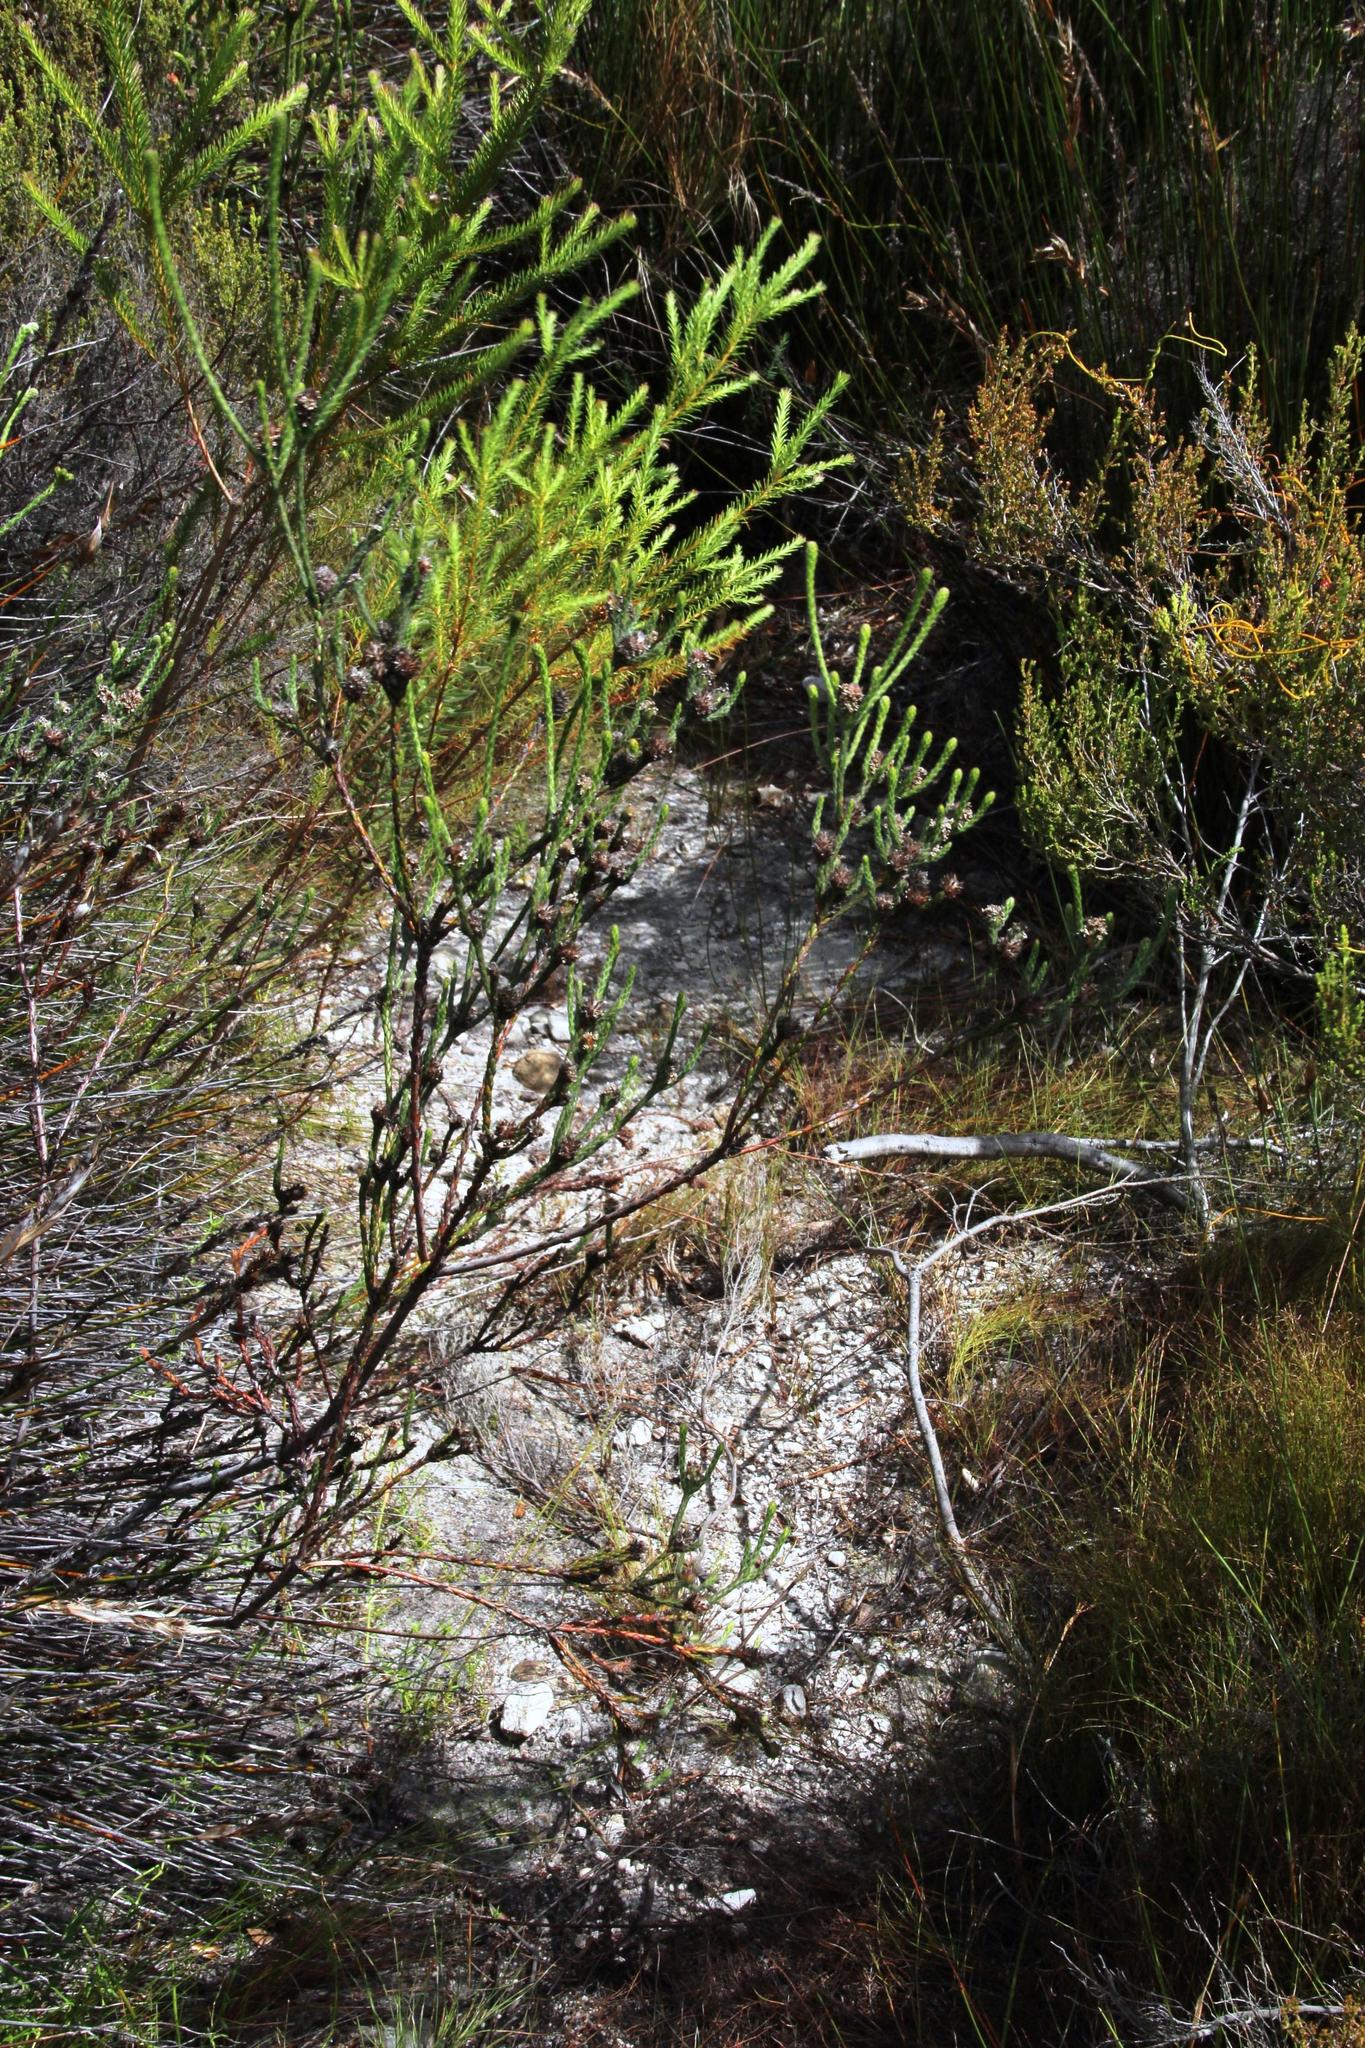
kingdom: Plantae
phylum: Tracheophyta
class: Magnoliopsida
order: Bruniales
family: Bruniaceae
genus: Brunia
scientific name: Brunia monogyna
